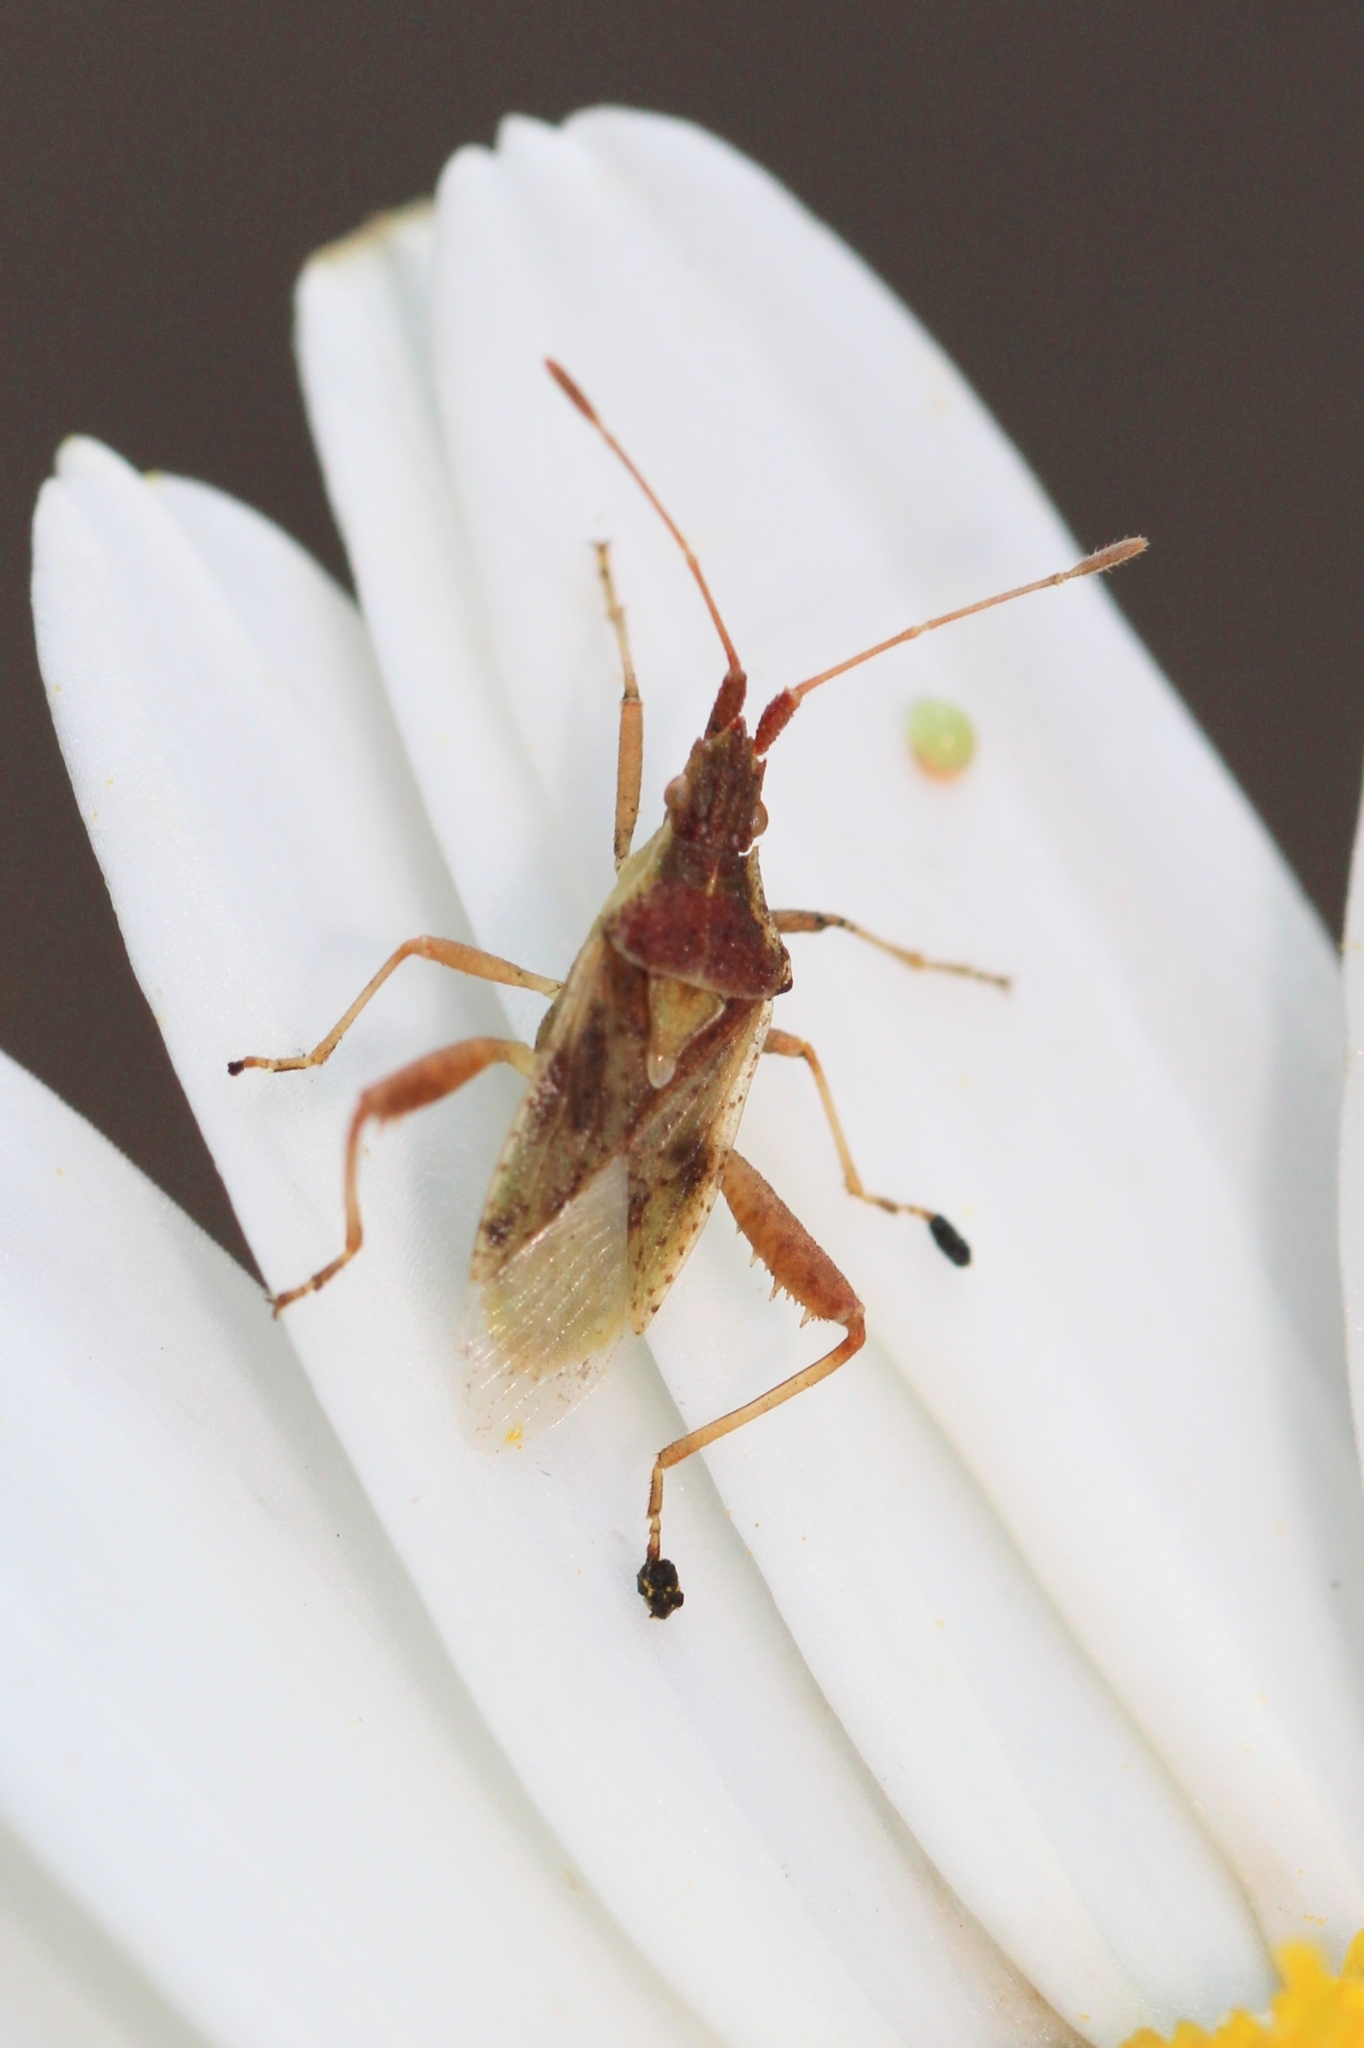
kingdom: Animalia
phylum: Arthropoda
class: Insecta
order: Hemiptera
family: Rhopalidae
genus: Harmostes
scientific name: Harmostes reflexulus
